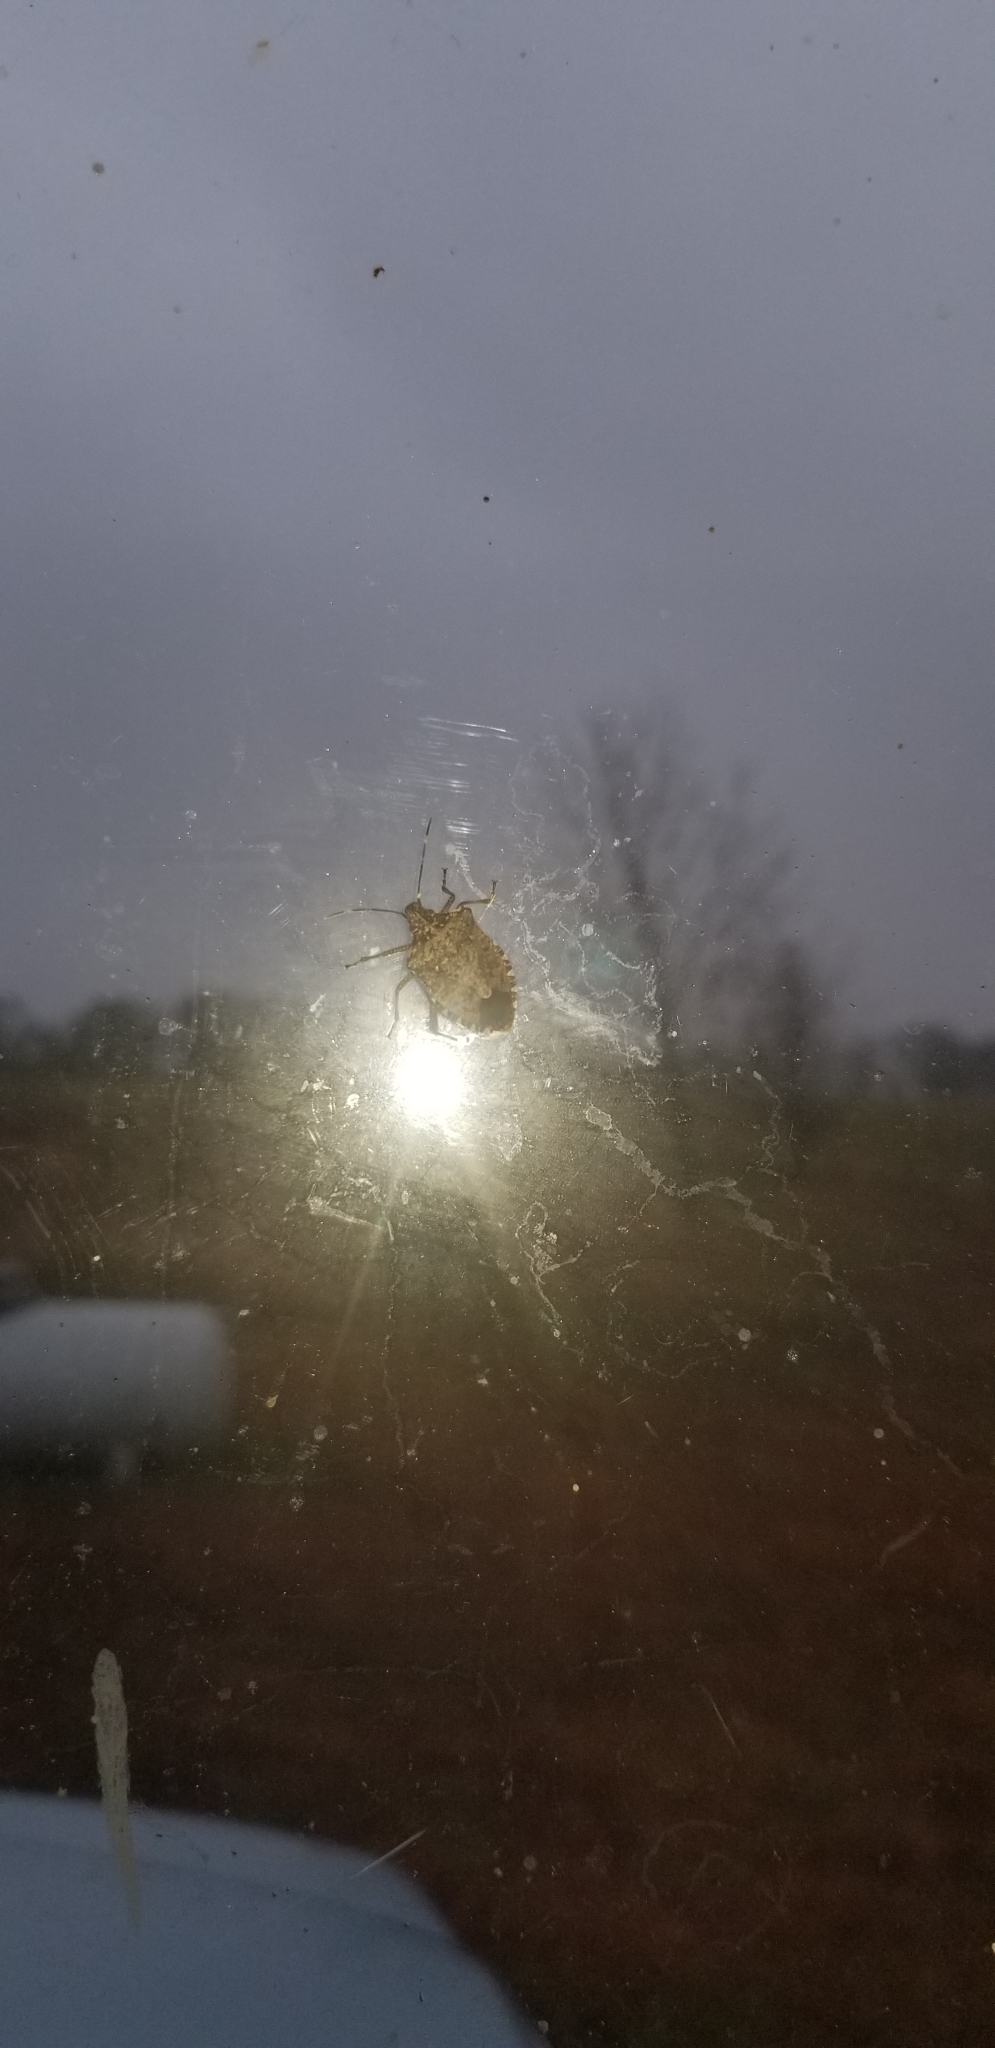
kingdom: Animalia
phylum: Arthropoda
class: Insecta
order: Hemiptera
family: Pentatomidae
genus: Halyomorpha
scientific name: Halyomorpha halys
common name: Brown marmorated stink bug
